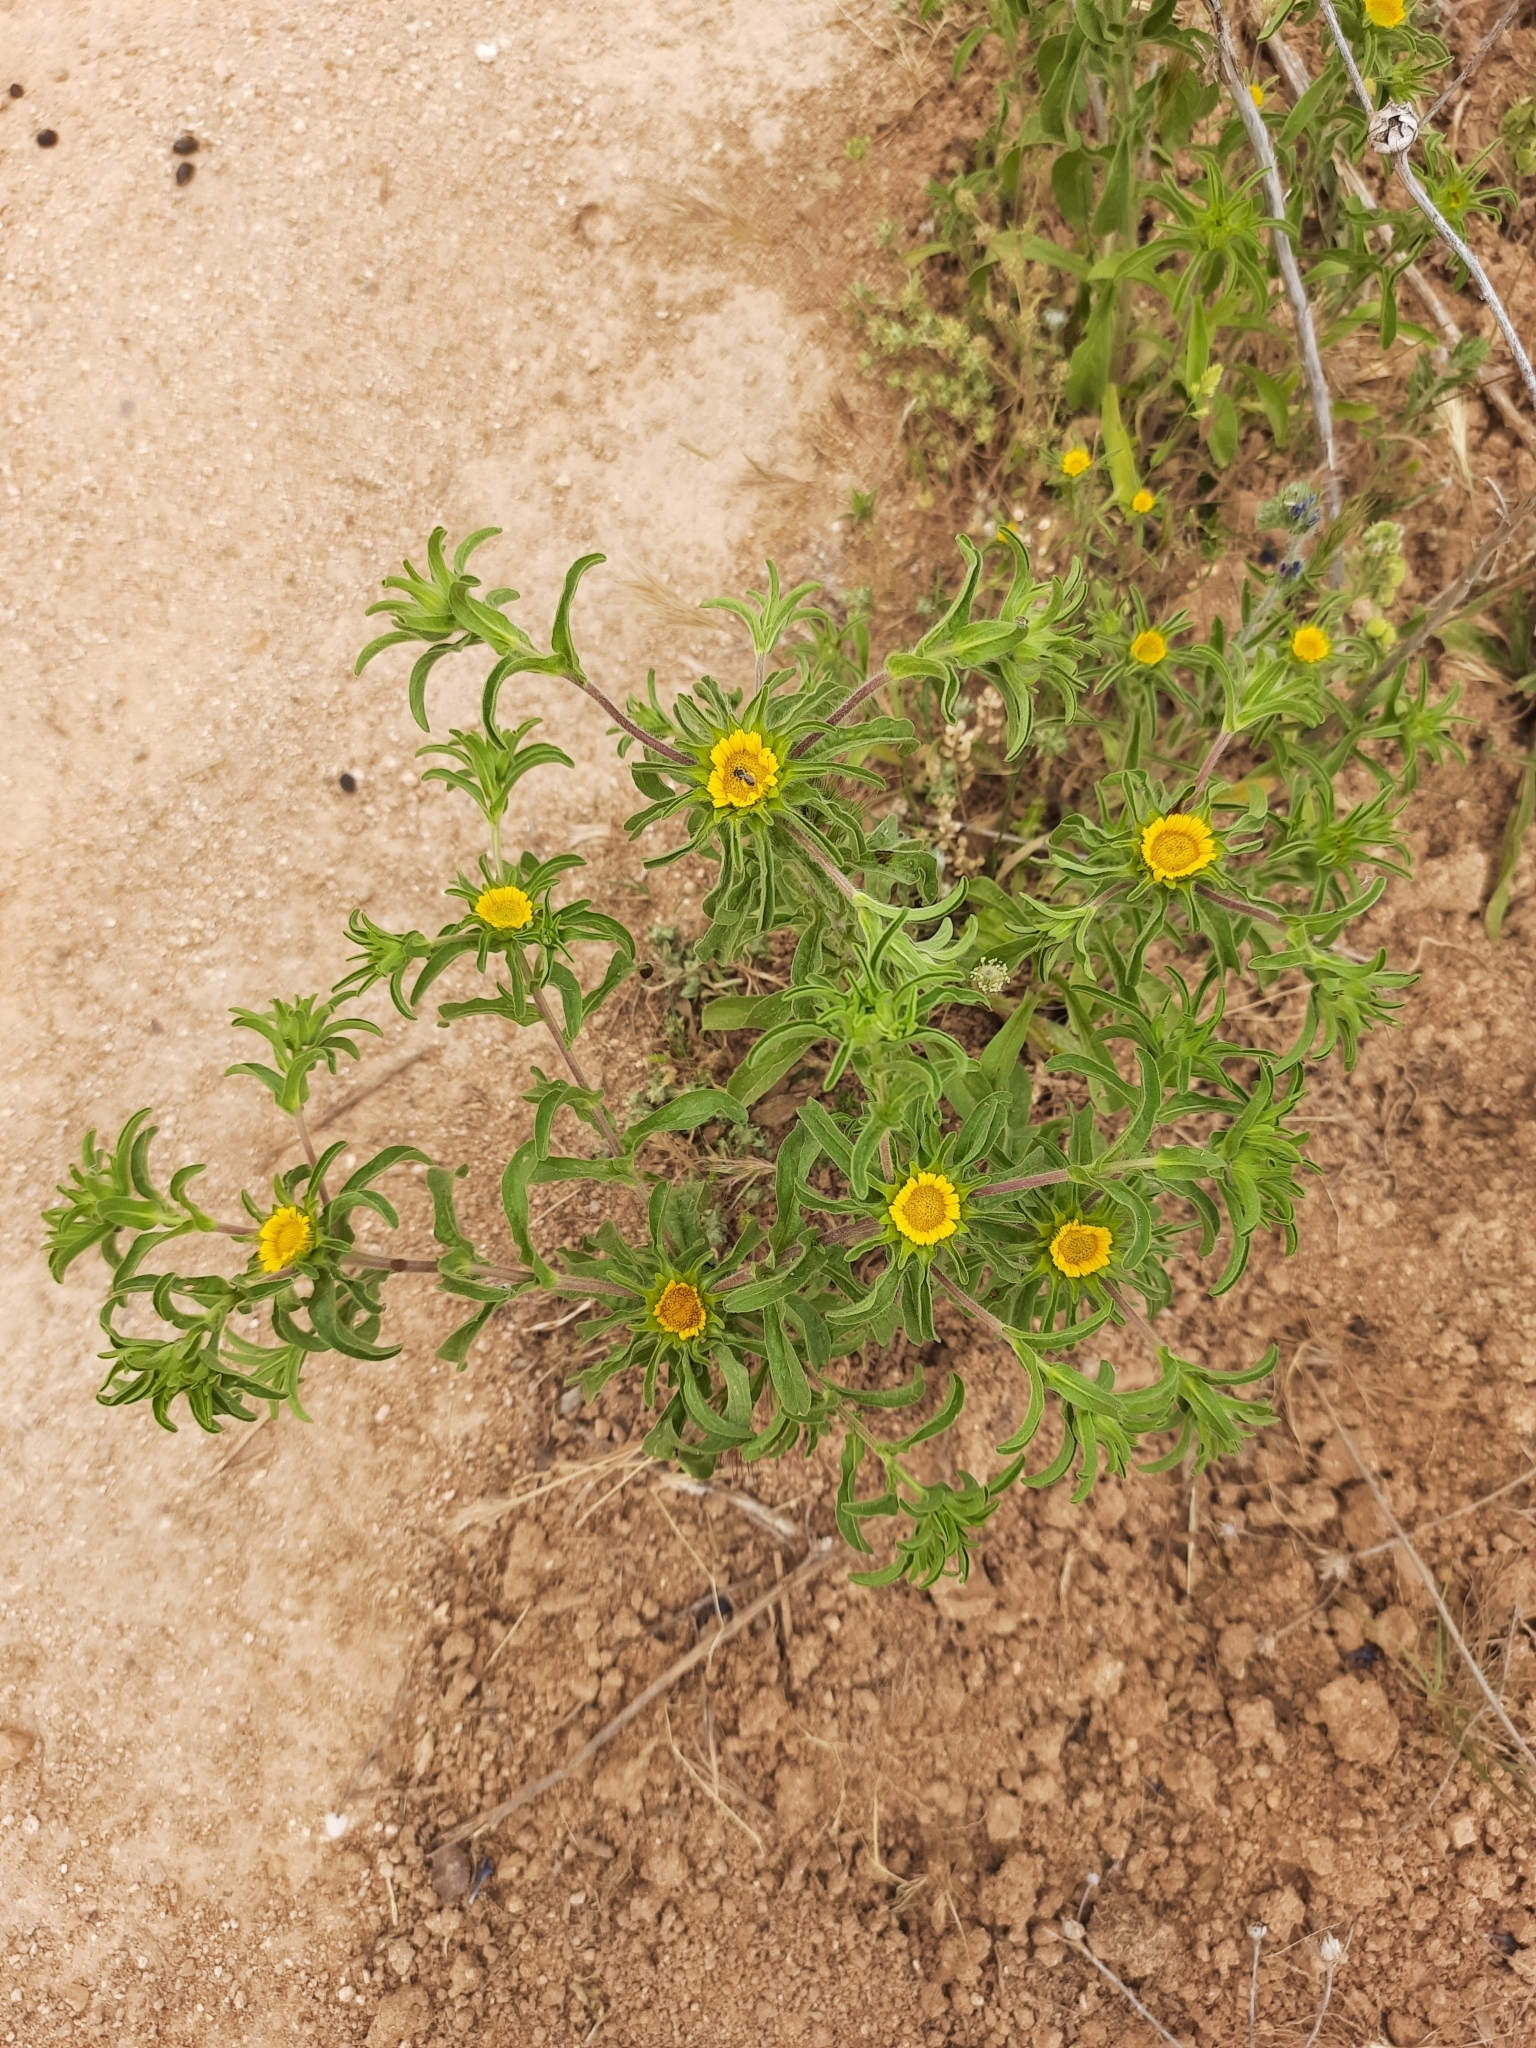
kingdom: Plantae
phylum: Tracheophyta
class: Magnoliopsida
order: Asterales
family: Asteraceae
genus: Asteriscus
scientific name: Asteriscus aquaticus
